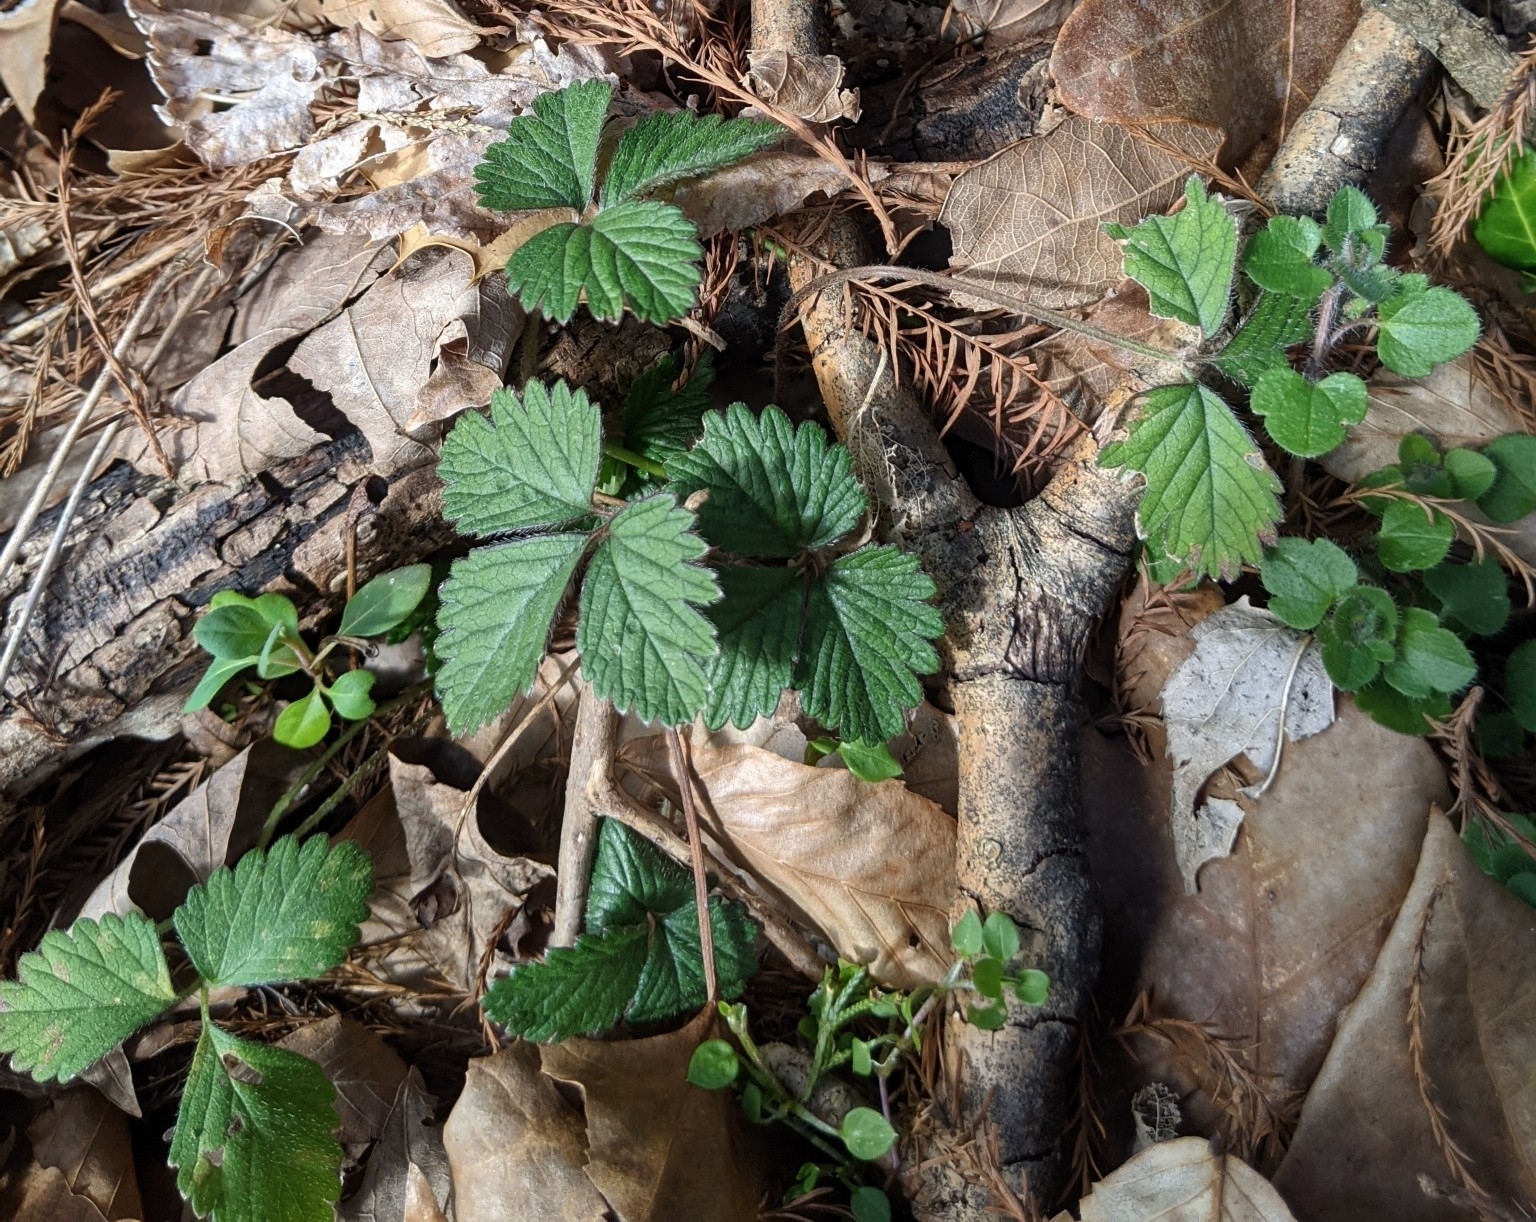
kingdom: Plantae
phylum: Tracheophyta
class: Magnoliopsida
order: Rosales
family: Rosaceae
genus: Potentilla
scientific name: Potentilla indica
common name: Yellow-flowered strawberry
